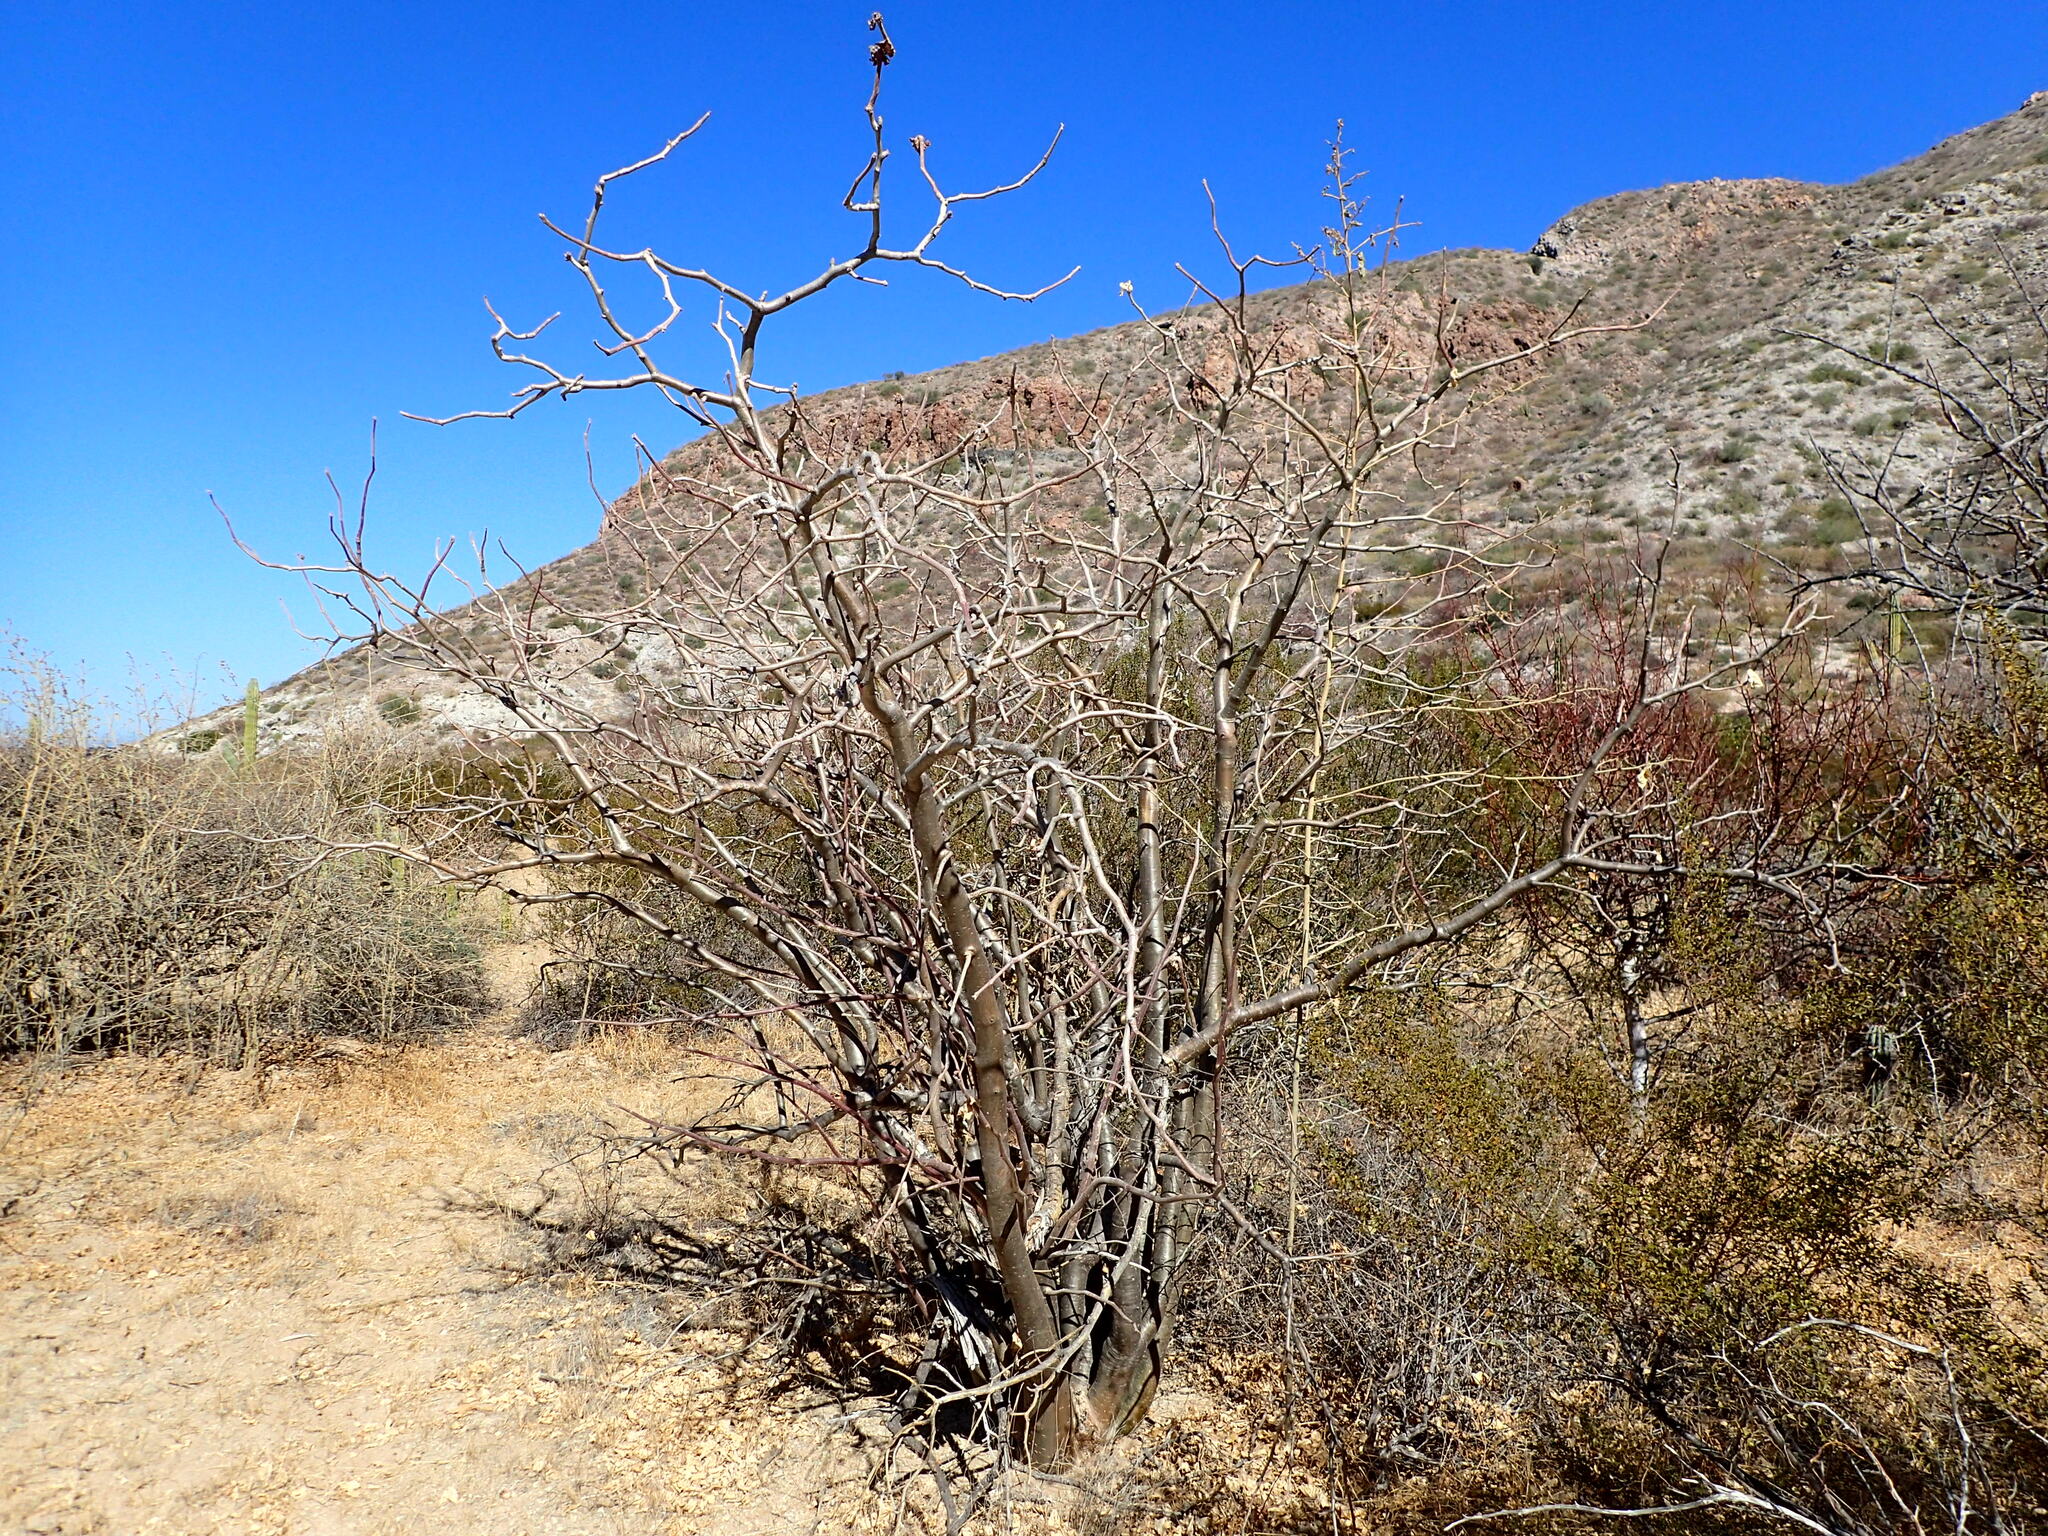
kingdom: Plantae
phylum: Tracheophyta
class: Magnoliopsida
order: Malpighiales
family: Euphorbiaceae
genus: Jatropha
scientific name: Jatropha cinerea
